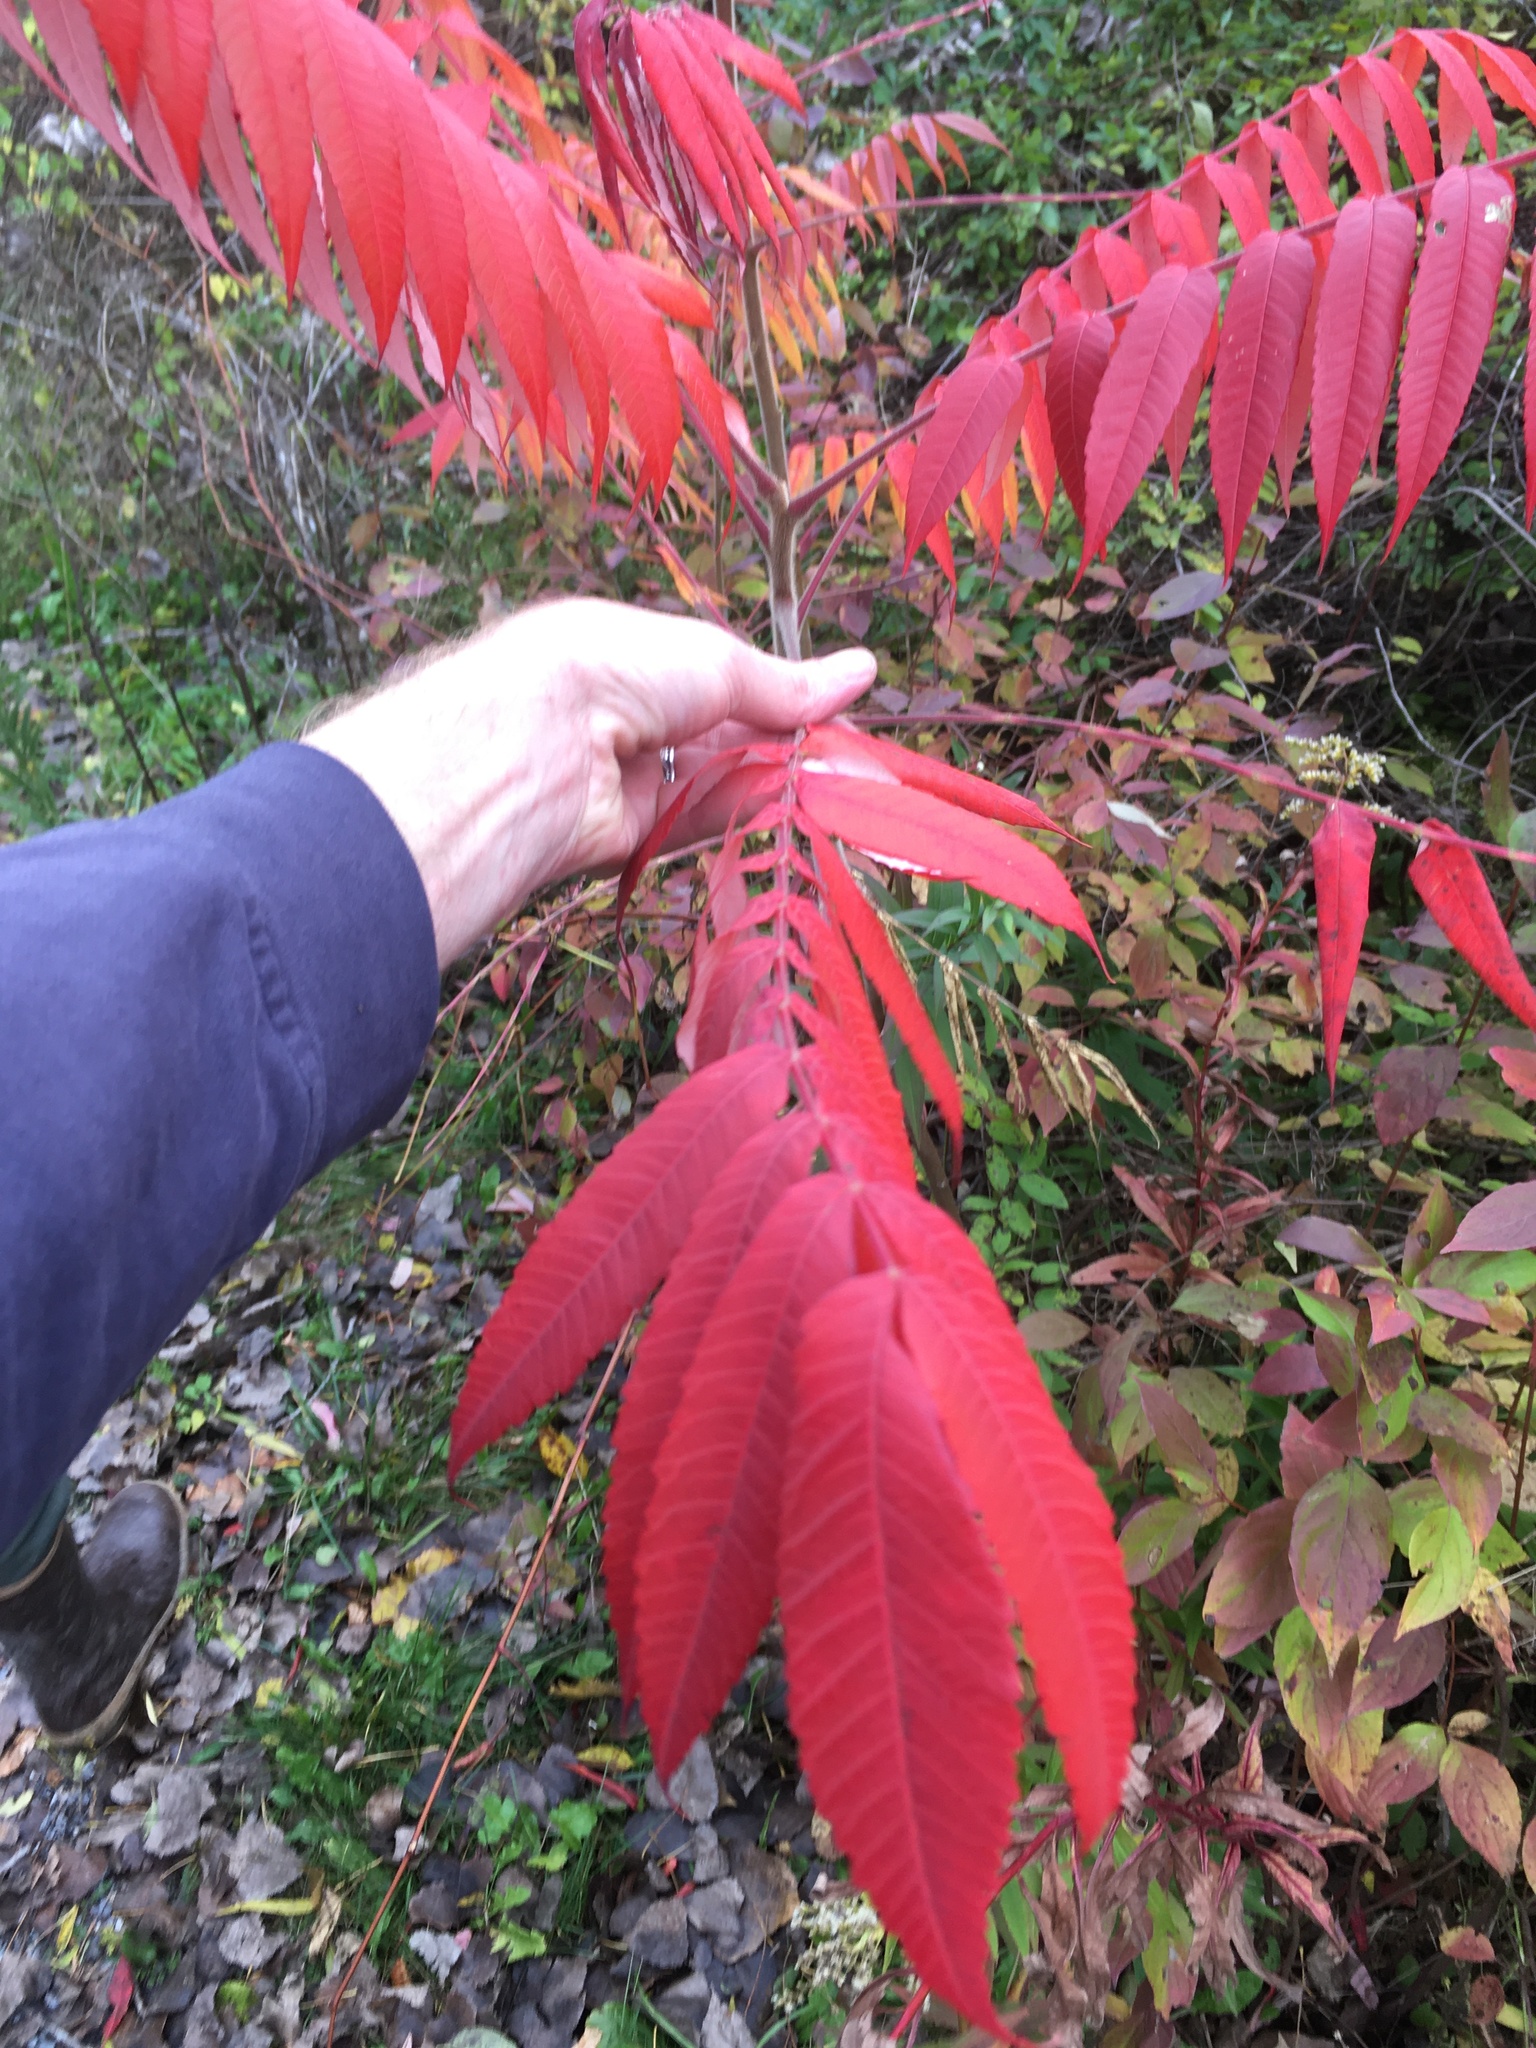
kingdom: Plantae
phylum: Tracheophyta
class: Magnoliopsida
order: Sapindales
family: Anacardiaceae
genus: Rhus
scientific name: Rhus typhina
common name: Staghorn sumac
